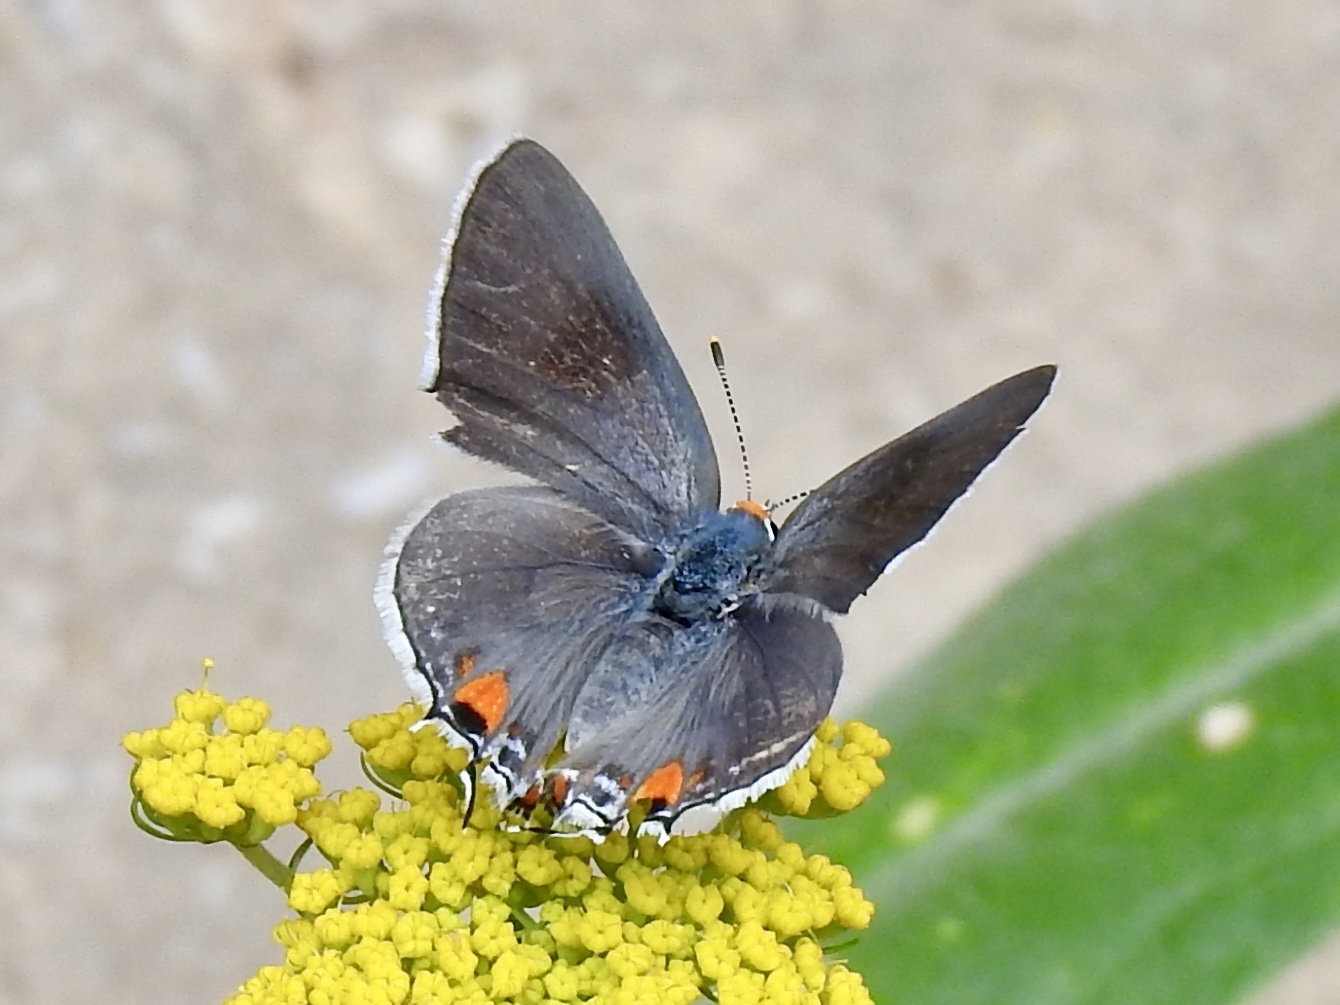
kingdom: Animalia
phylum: Arthropoda
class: Insecta
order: Lepidoptera
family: Lycaenidae
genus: Strymon
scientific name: Strymon melinus
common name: Gray hairstreak
